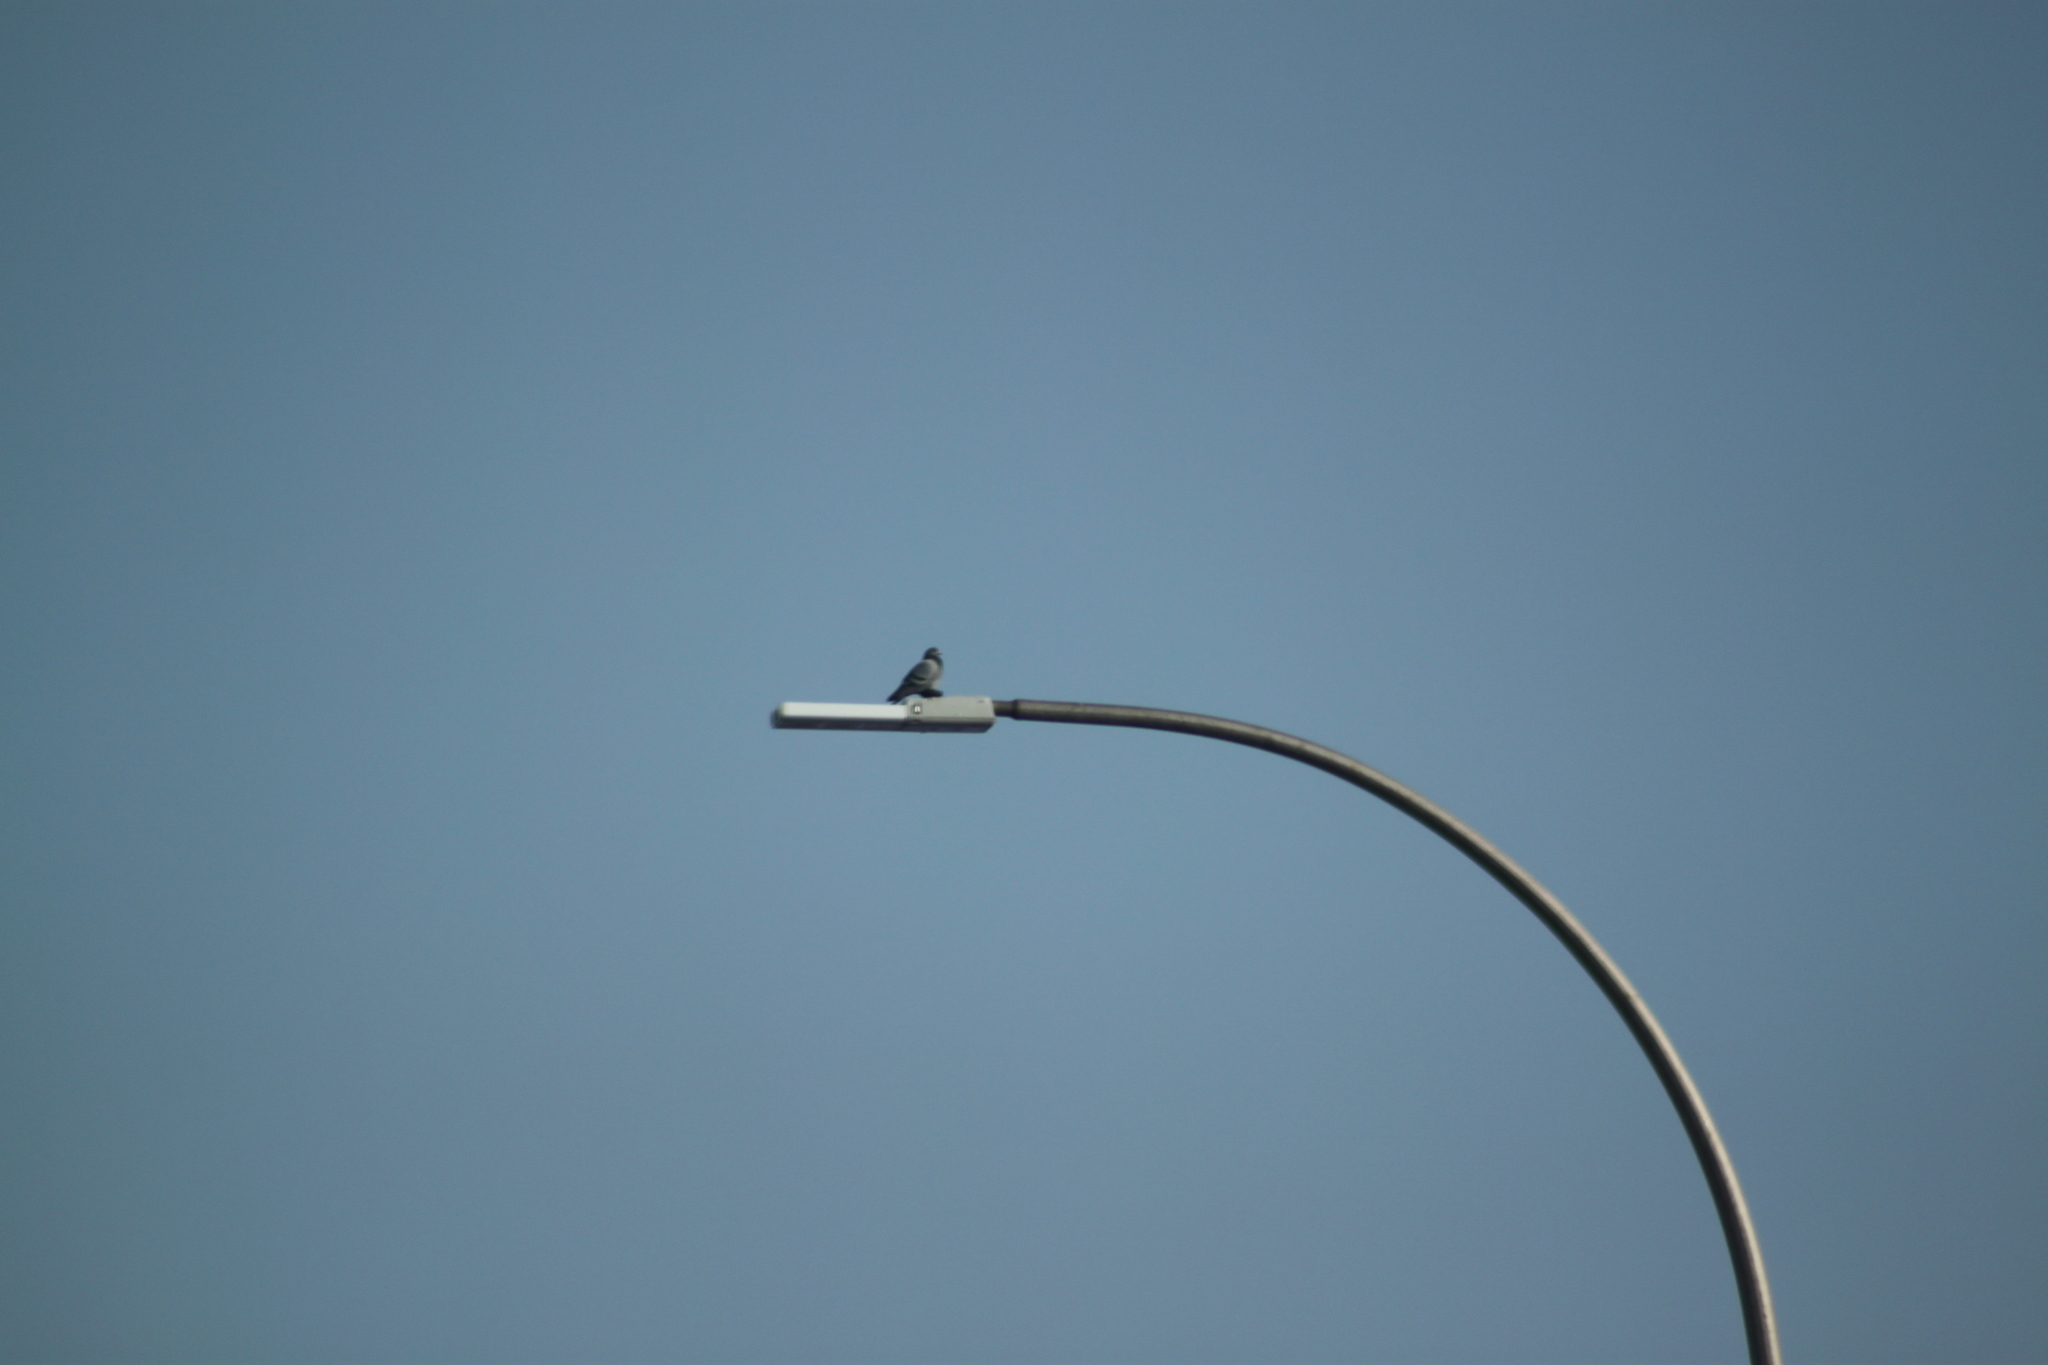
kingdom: Animalia
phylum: Chordata
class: Aves
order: Columbiformes
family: Columbidae
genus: Columba
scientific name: Columba livia
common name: Rock pigeon
